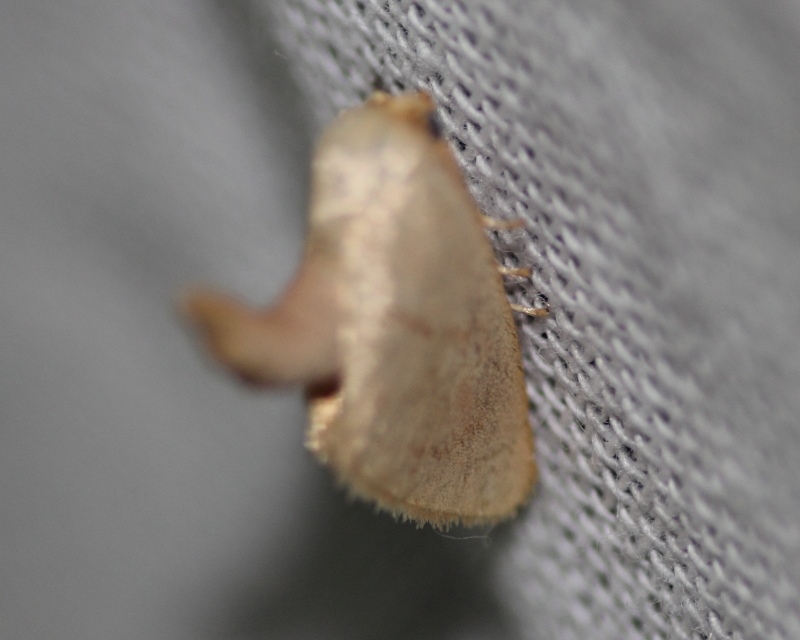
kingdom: Animalia
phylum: Arthropoda
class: Insecta
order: Lepidoptera
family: Limacodidae
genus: Tortricidia
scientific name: Tortricidia pallida
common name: Red-crossed button slug moth
